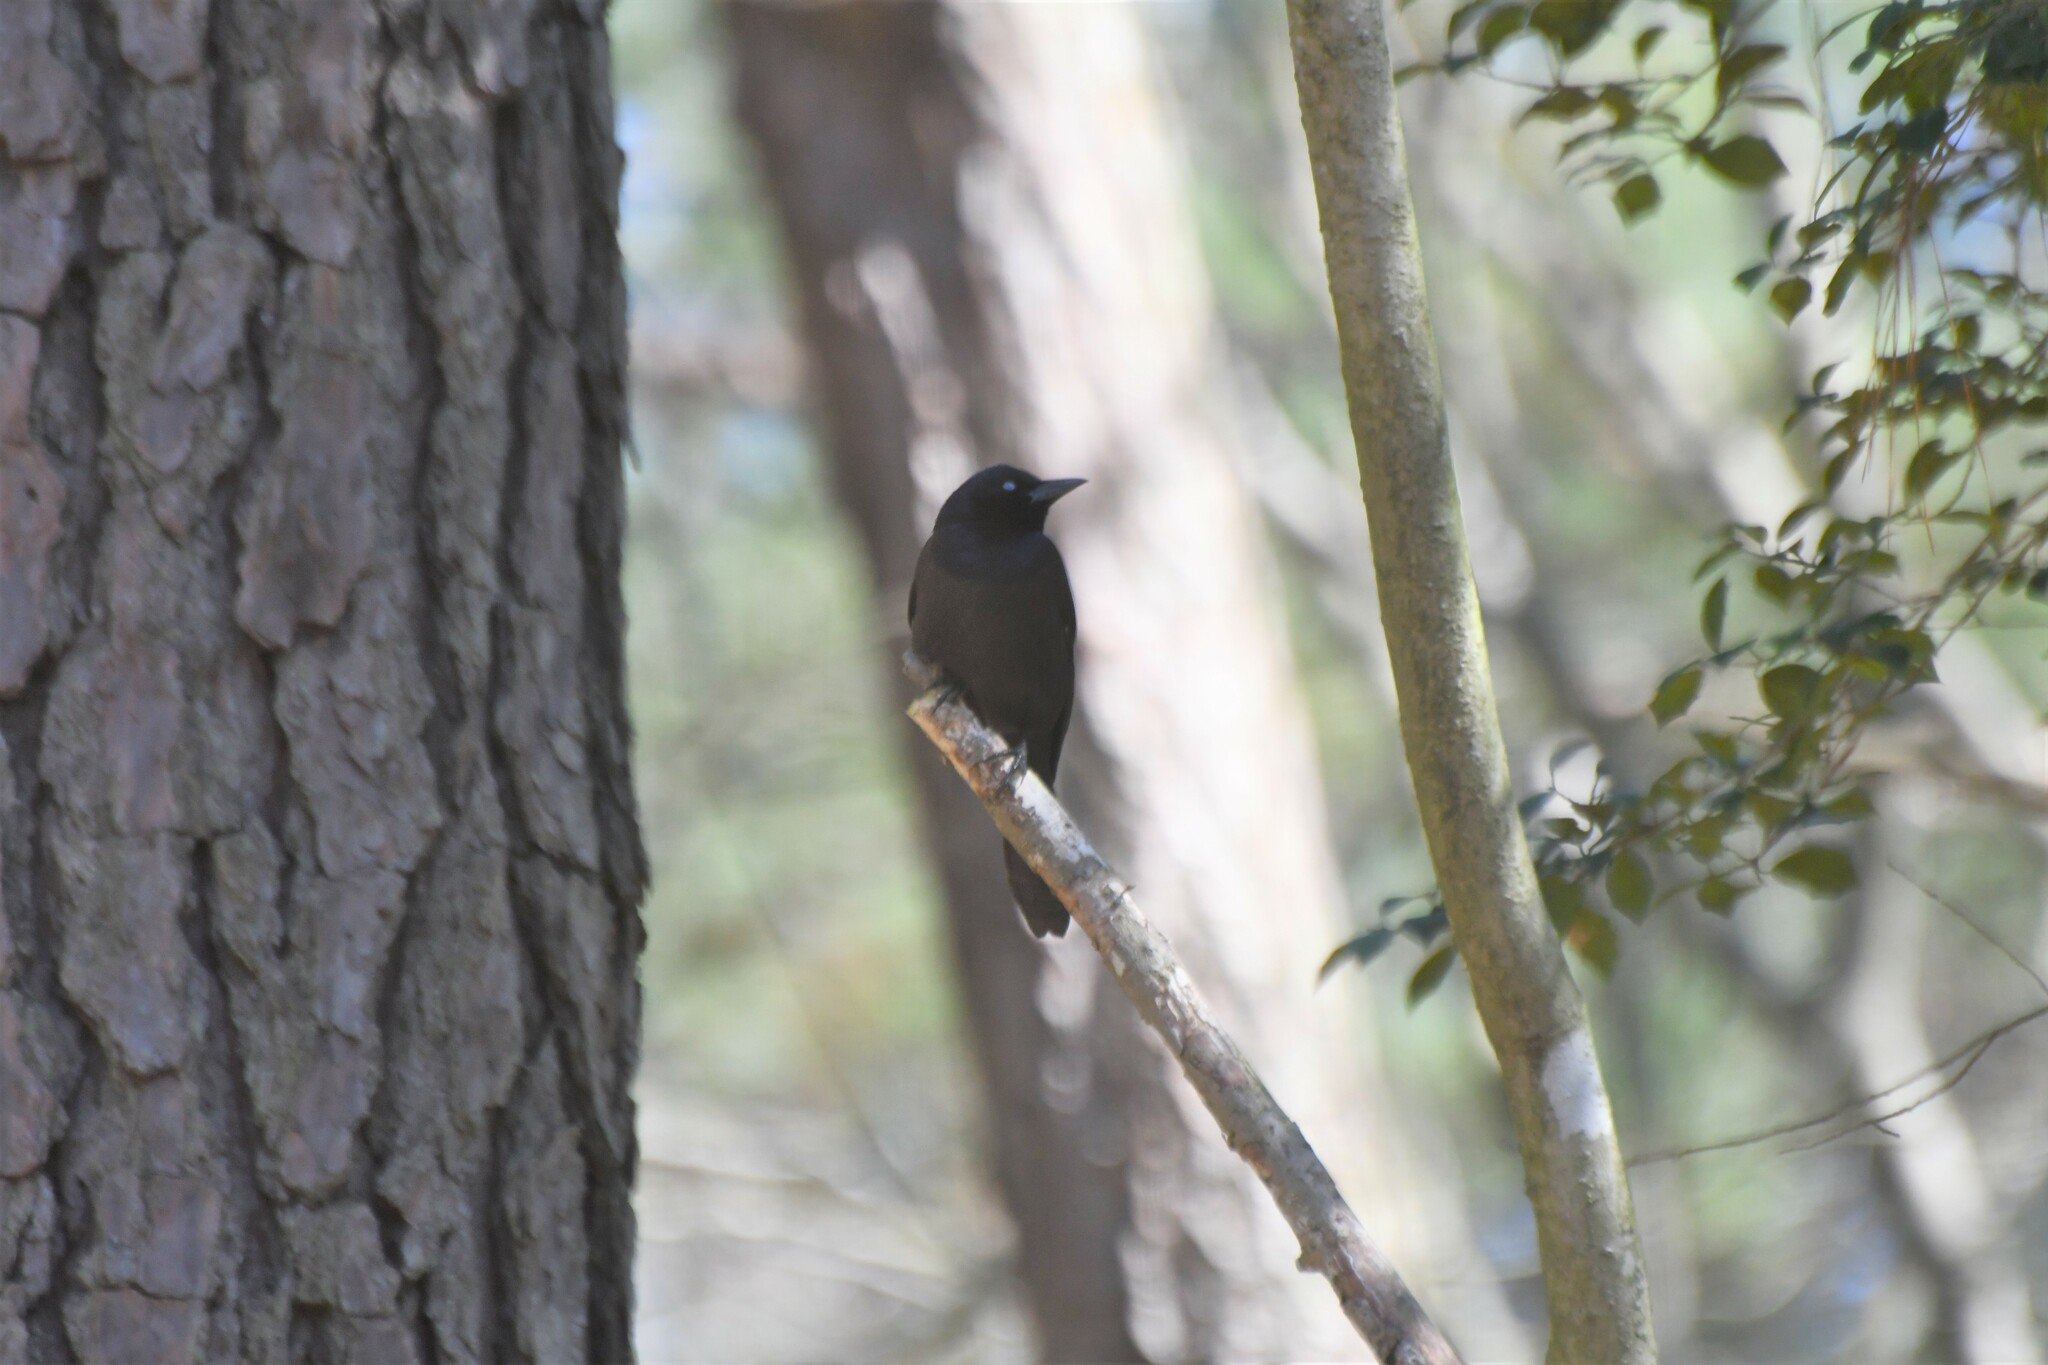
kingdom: Animalia
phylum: Chordata
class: Aves
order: Passeriformes
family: Icteridae
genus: Quiscalus
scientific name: Quiscalus quiscula
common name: Common grackle
